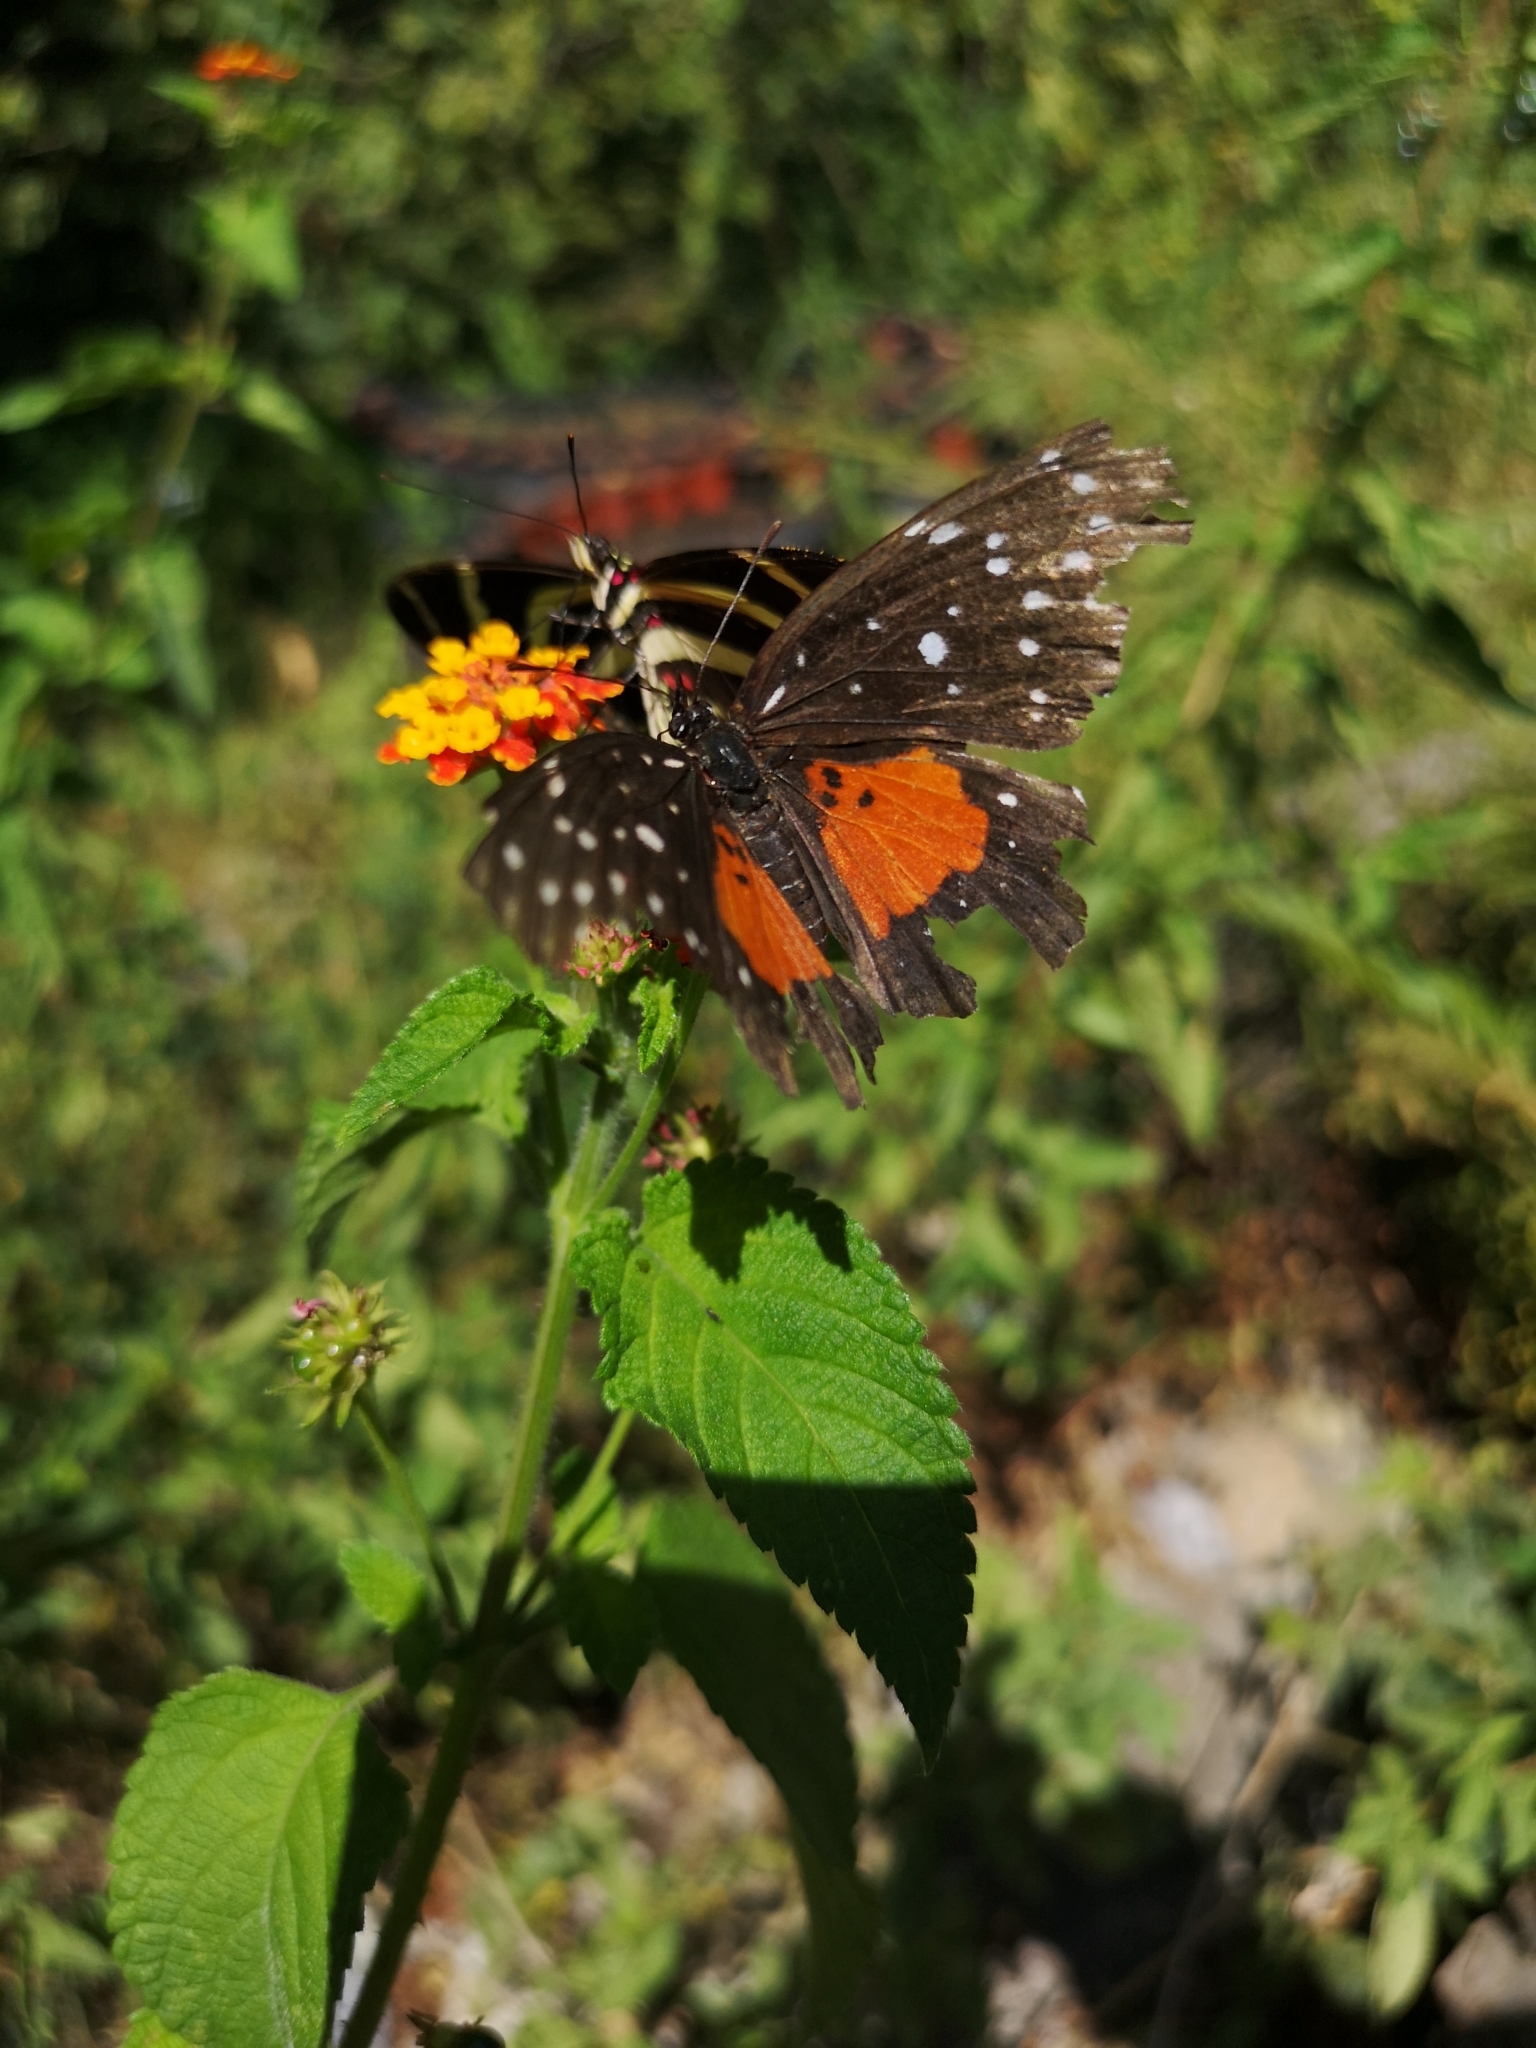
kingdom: Animalia
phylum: Arthropoda
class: Insecta
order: Lepidoptera
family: Nymphalidae
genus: Chlosyne
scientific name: Chlosyne janais
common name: Crimson patch
